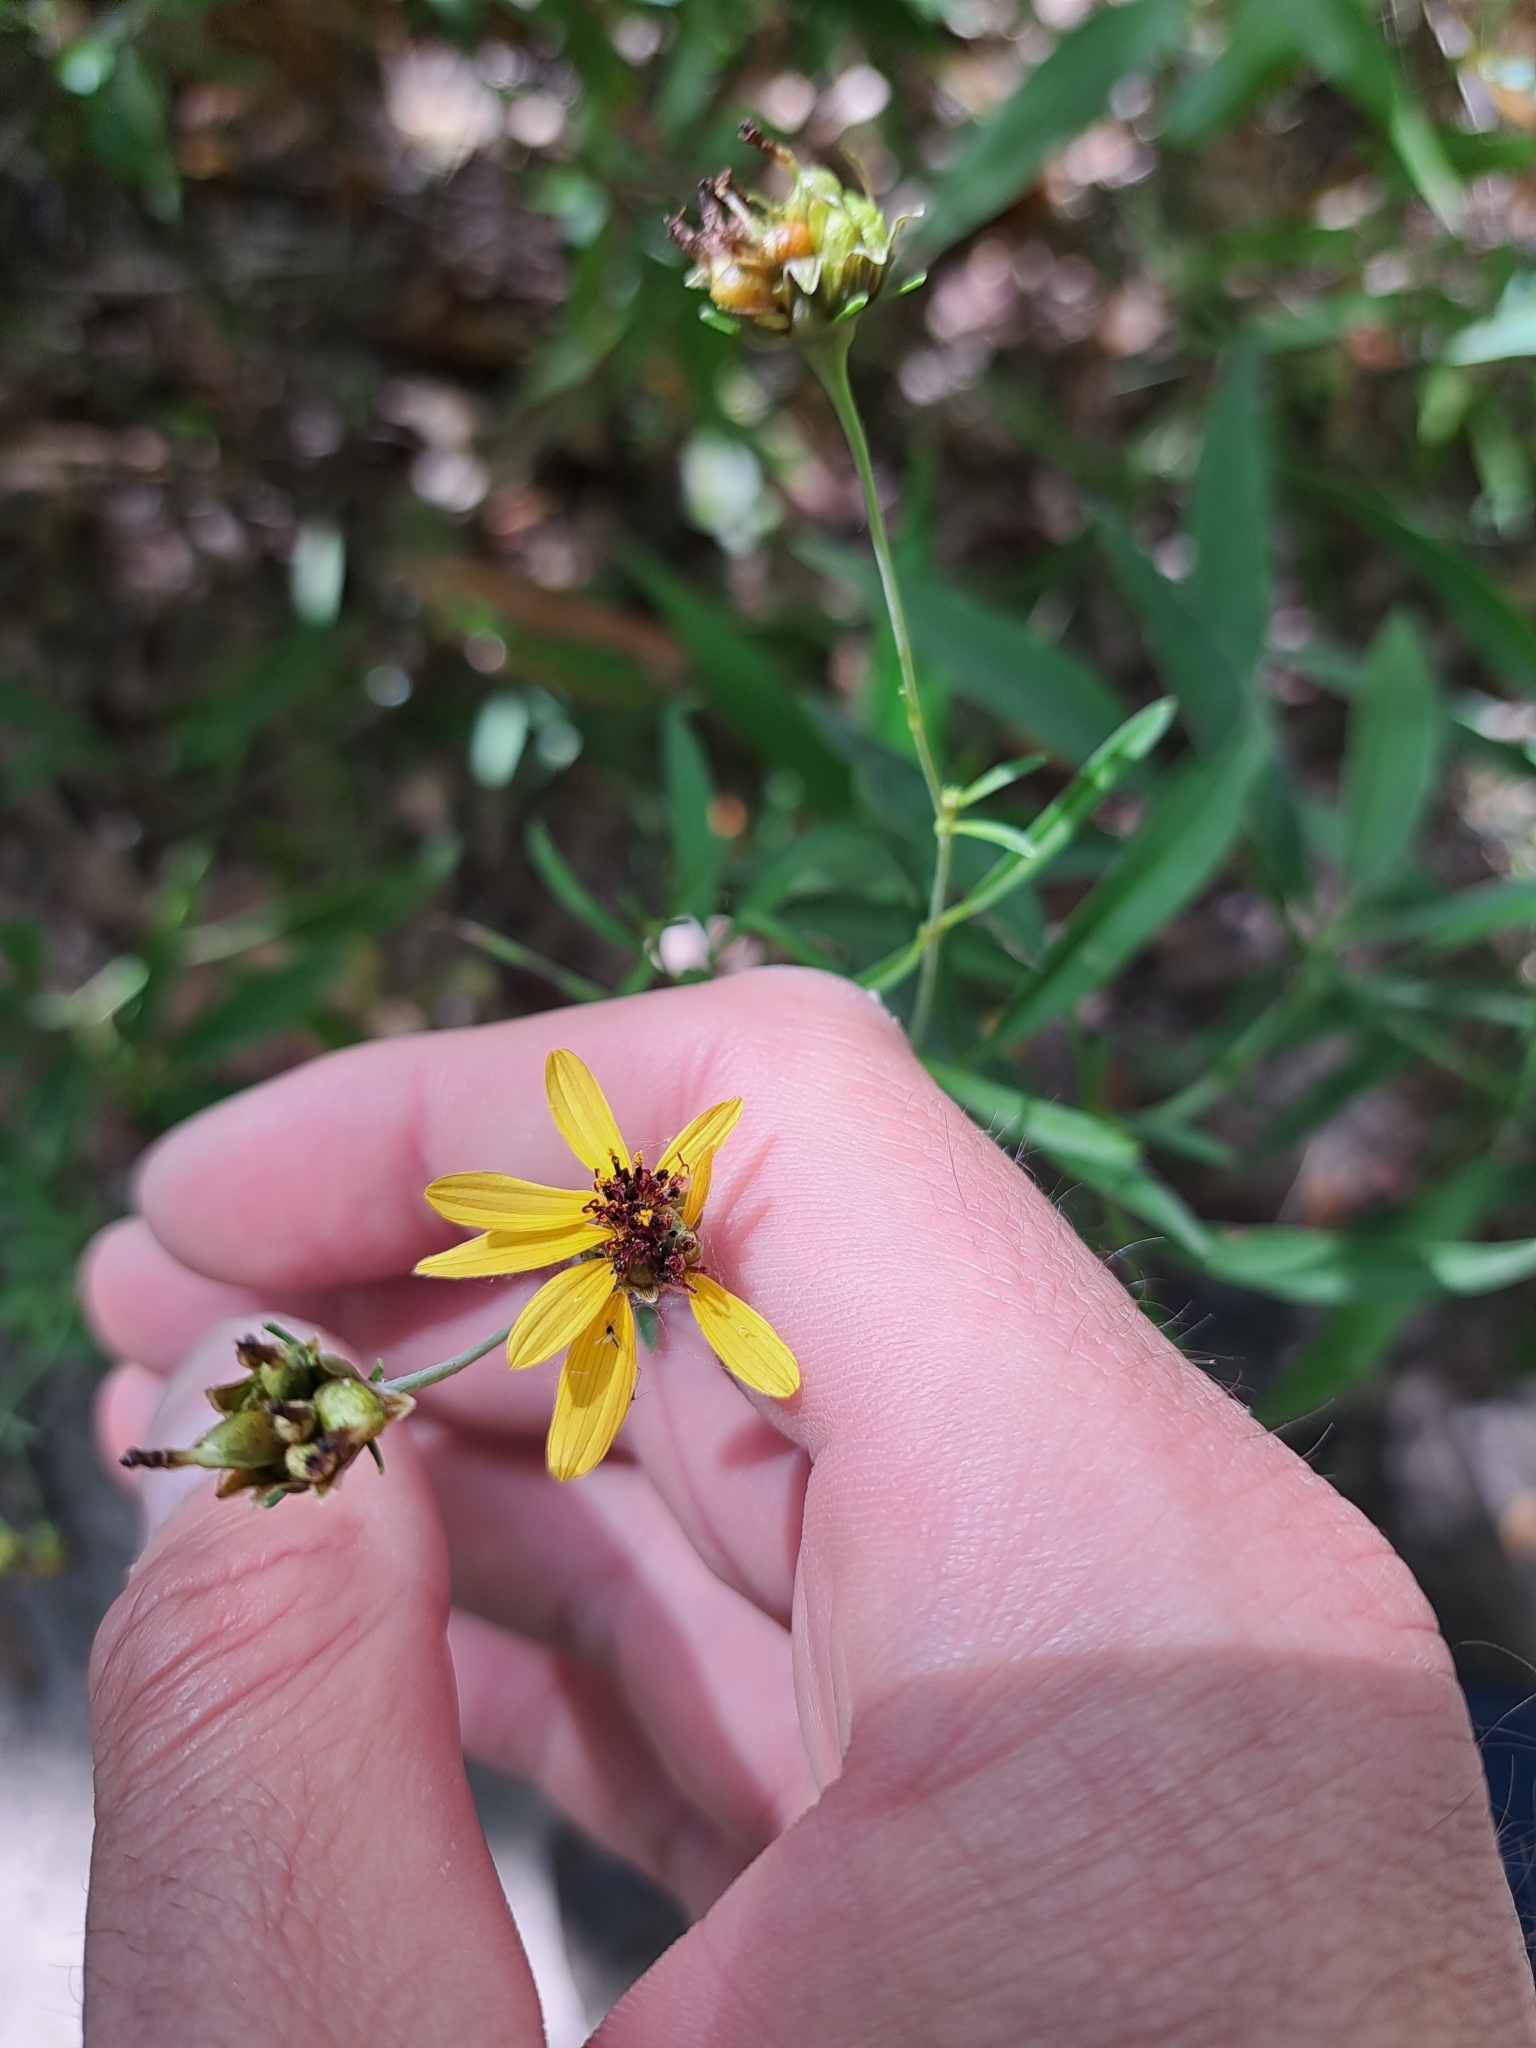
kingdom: Plantae
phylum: Tracheophyta
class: Magnoliopsida
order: Asterales
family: Asteraceae
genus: Coreopsis
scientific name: Coreopsis tripteris
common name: Tall coreopsis
